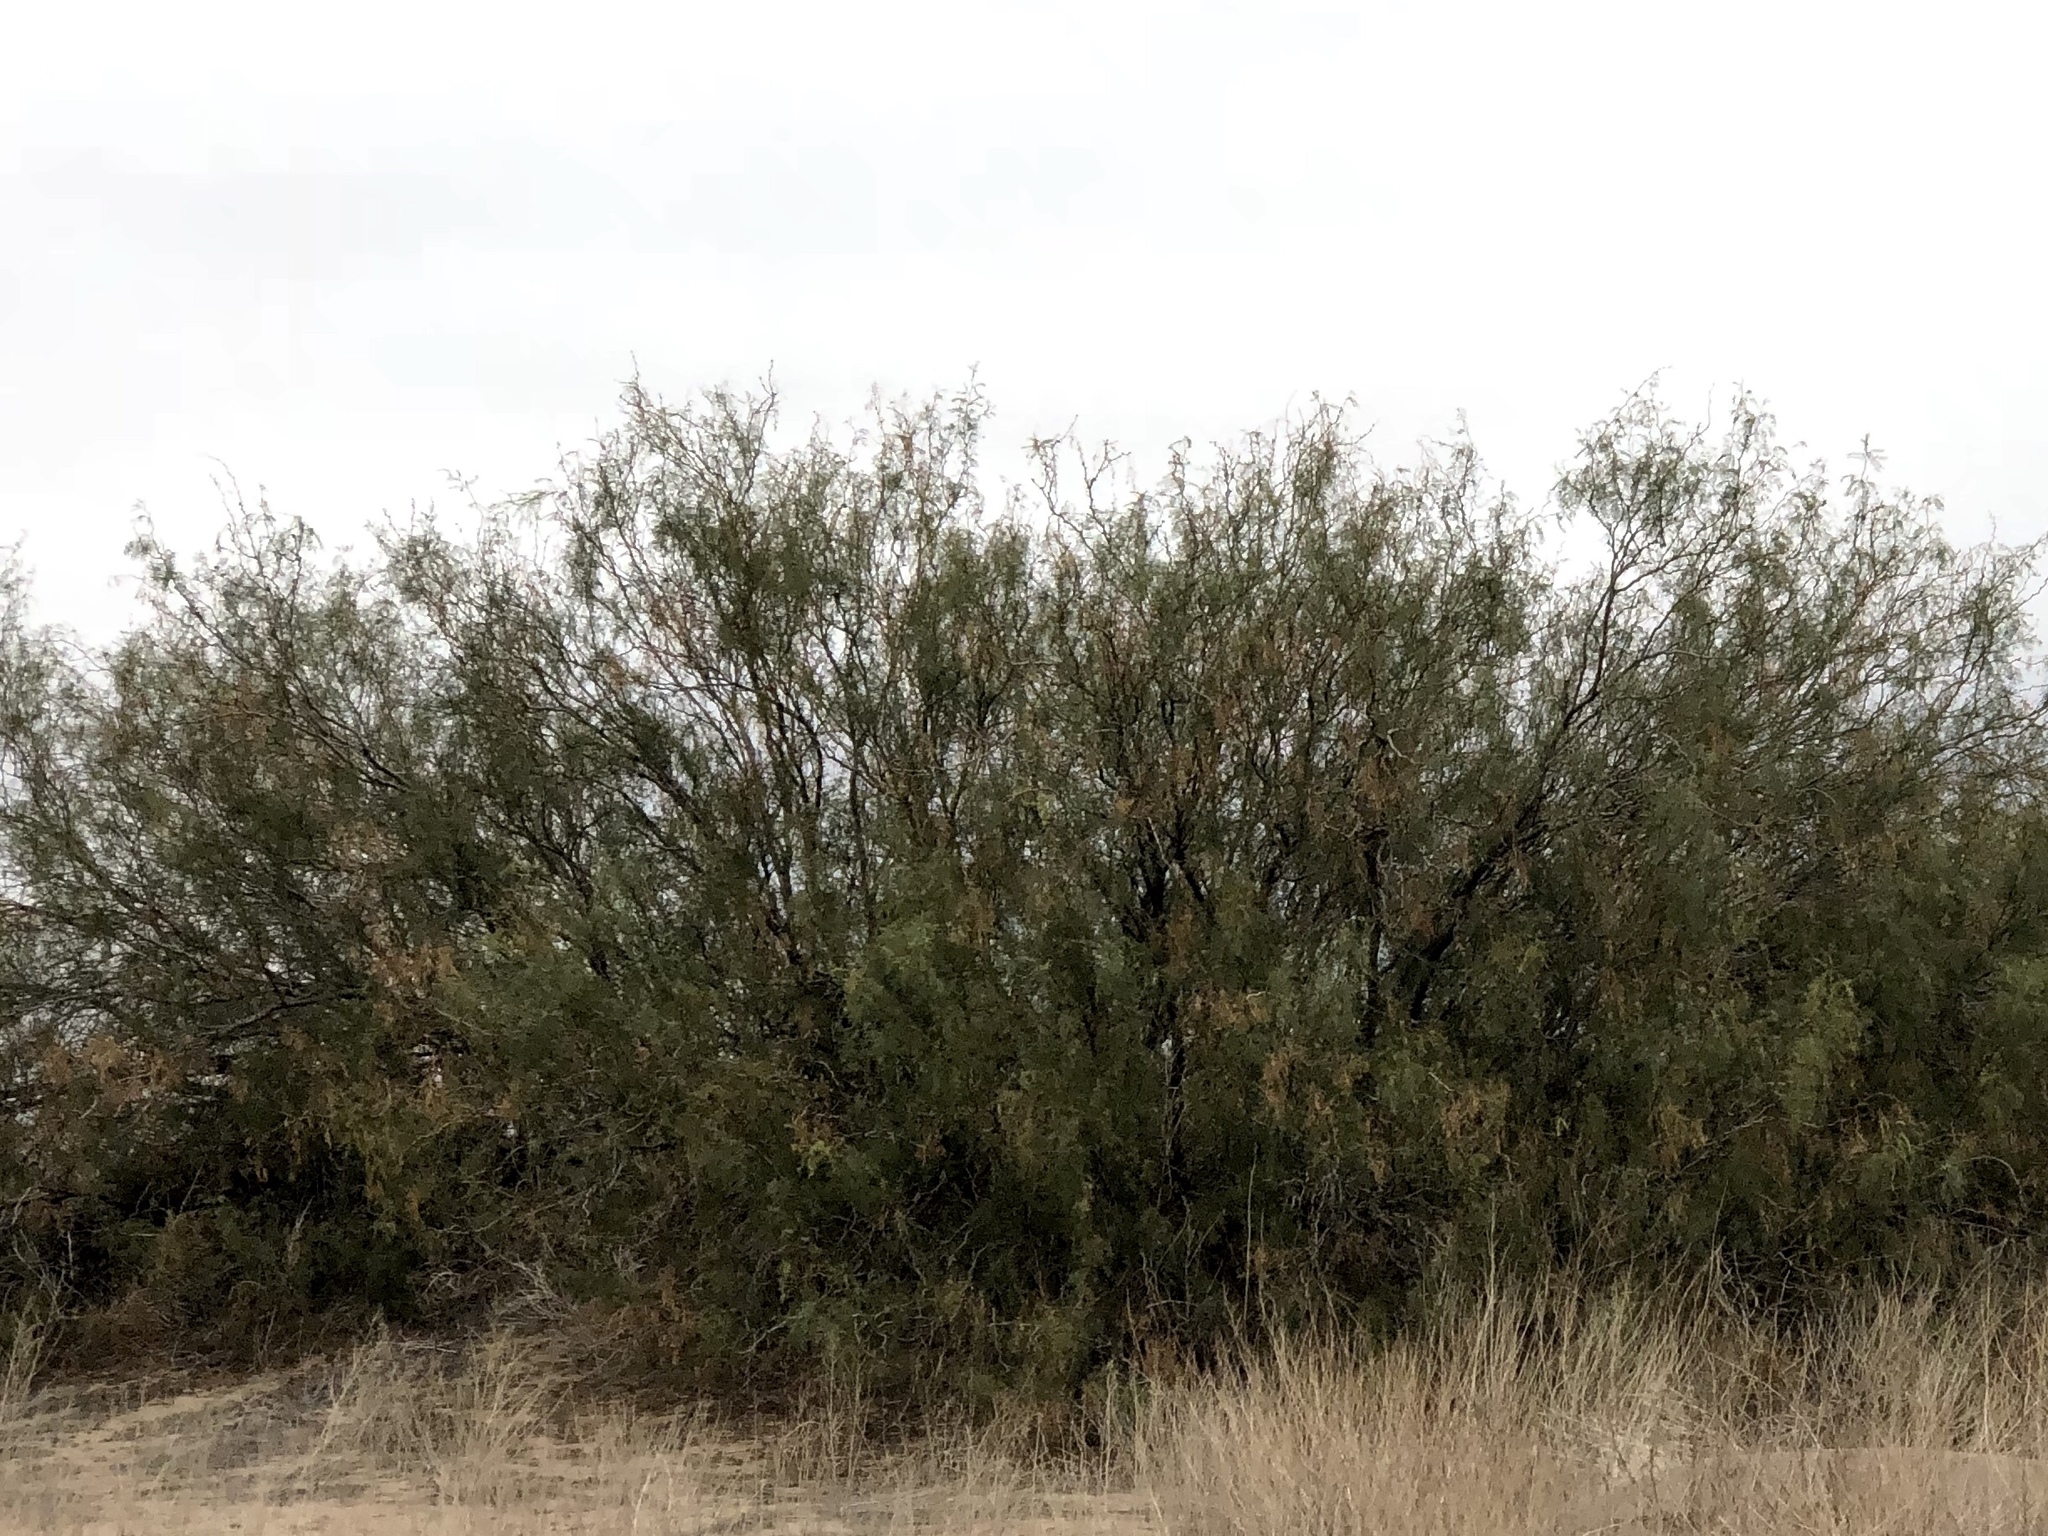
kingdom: Plantae
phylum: Tracheophyta
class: Magnoliopsida
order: Fabales
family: Fabaceae
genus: Prosopis
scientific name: Prosopis glandulosa
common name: Honey mesquite
